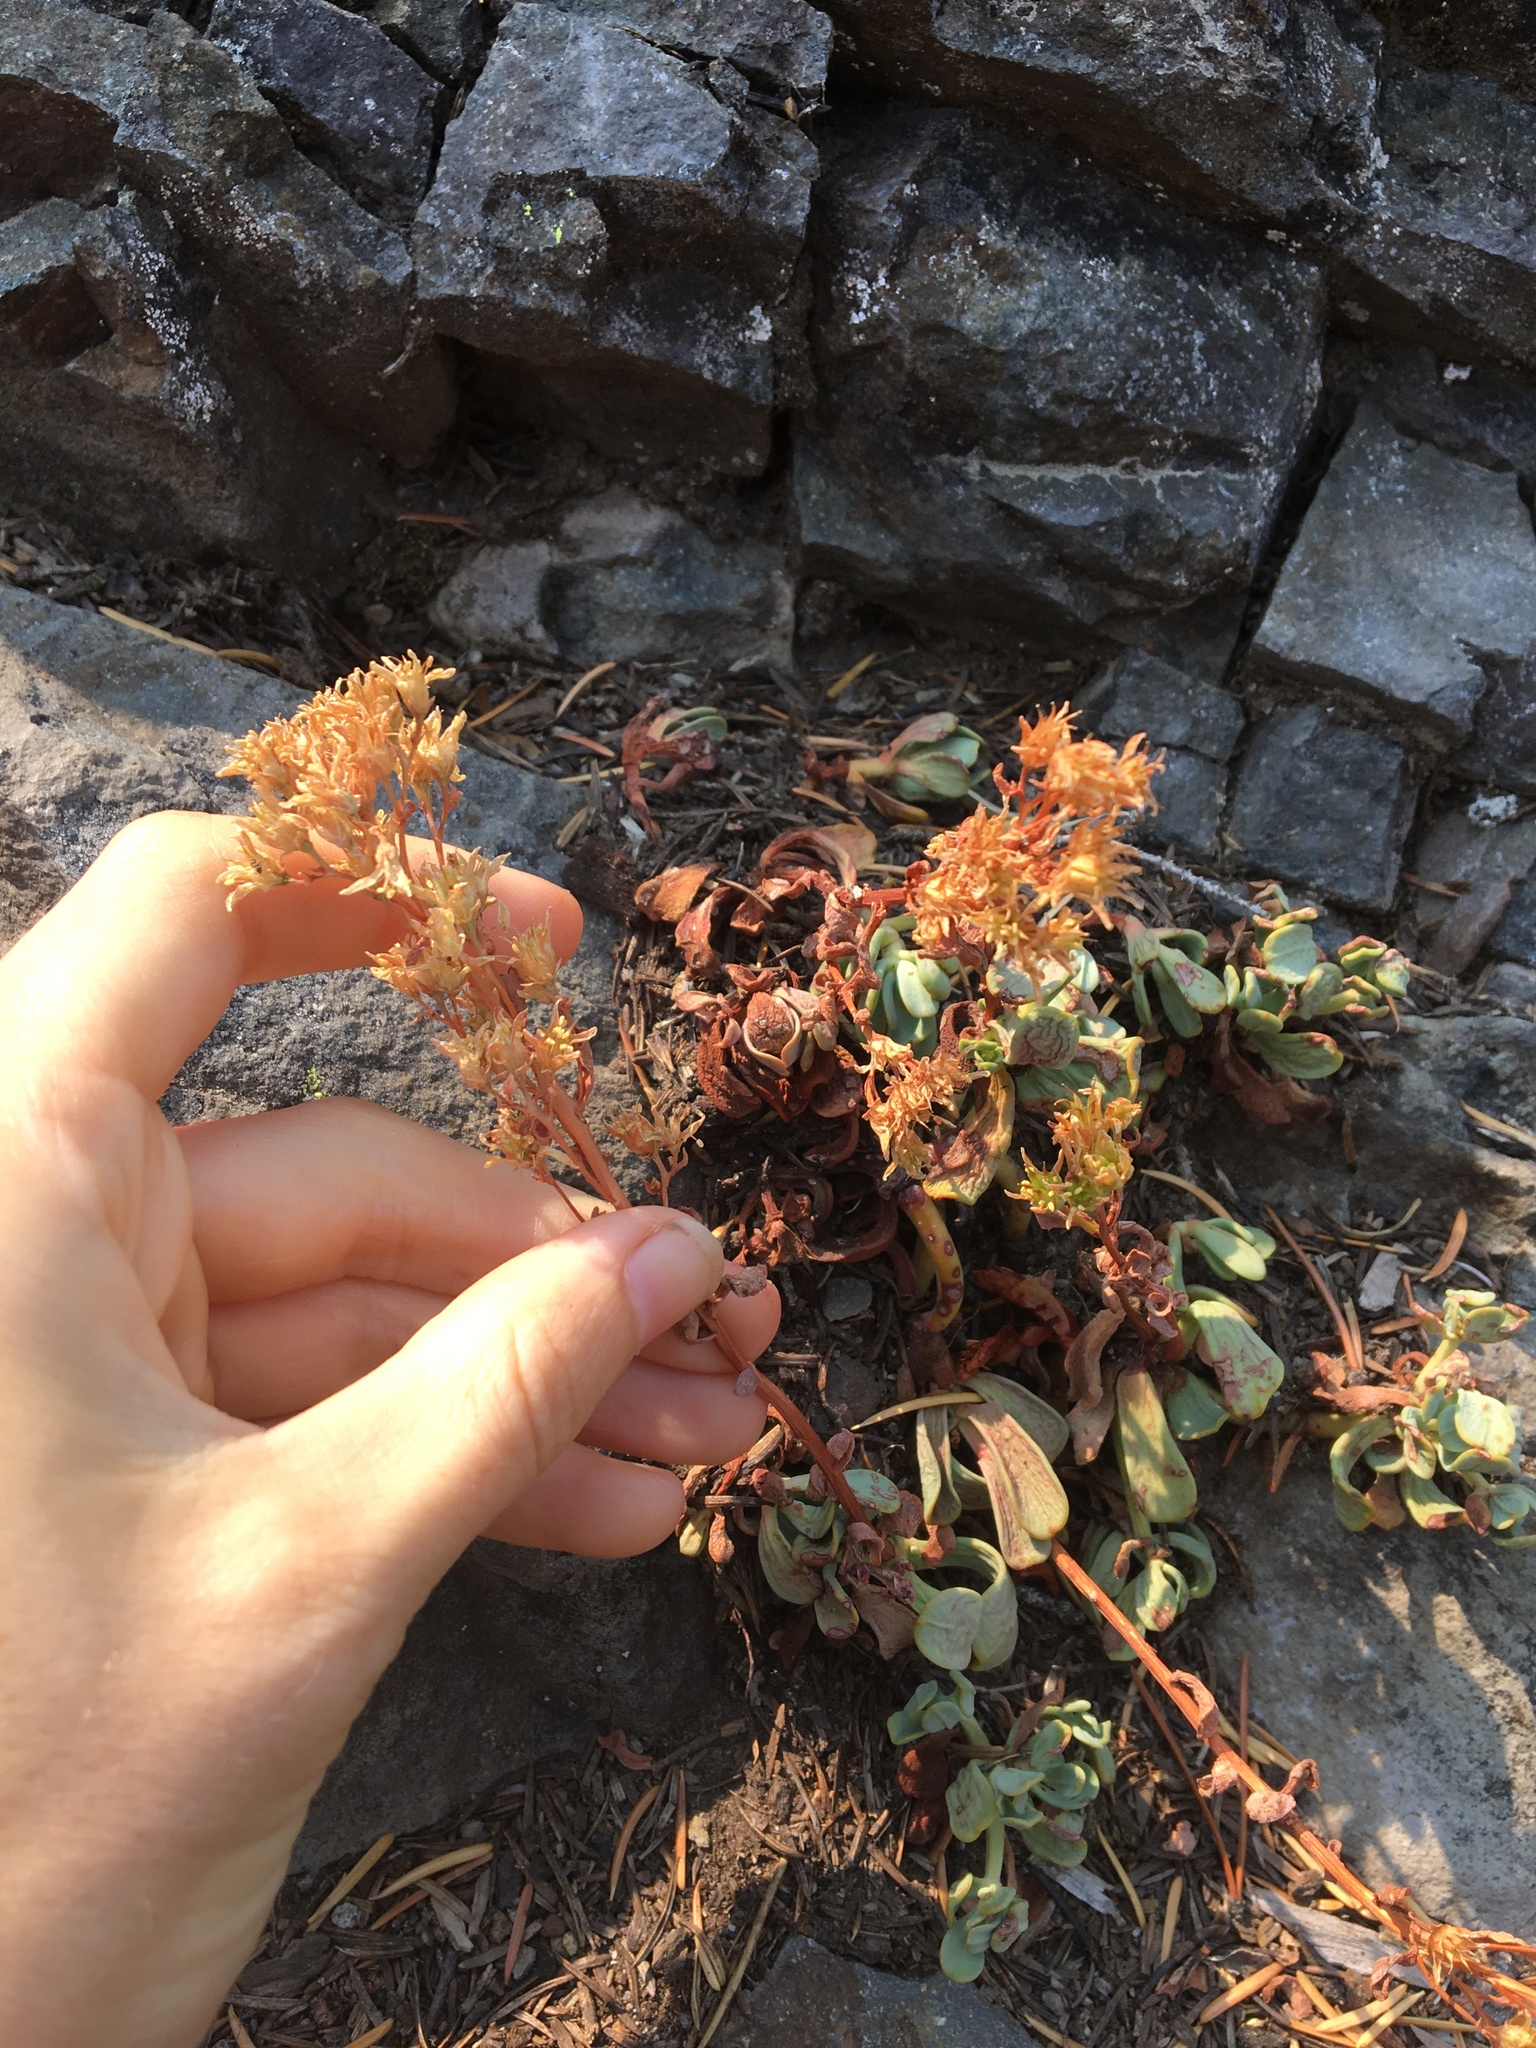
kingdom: Plantae
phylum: Tracheophyta
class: Magnoliopsida
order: Saxifragales
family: Crassulaceae
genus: Sedum
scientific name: Sedum spathulifolium
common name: Colorado stonecrop
